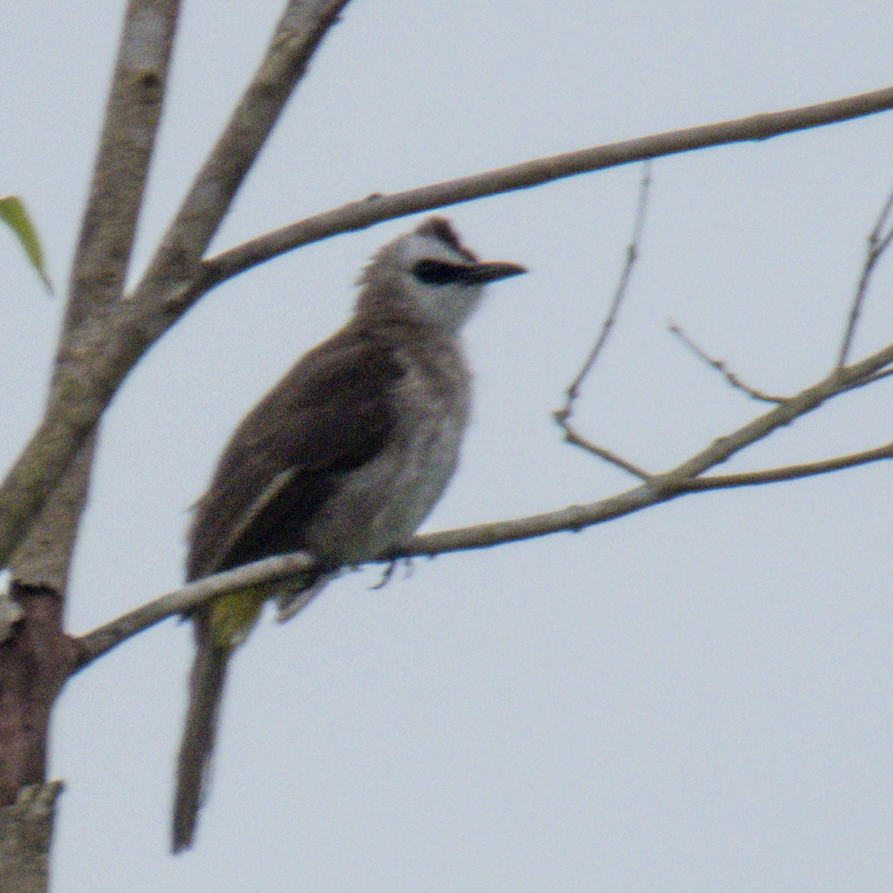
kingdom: Animalia
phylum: Chordata
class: Aves
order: Passeriformes
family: Pycnonotidae
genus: Pycnonotus
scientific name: Pycnonotus goiavier
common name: Yellow-vented bulbul
